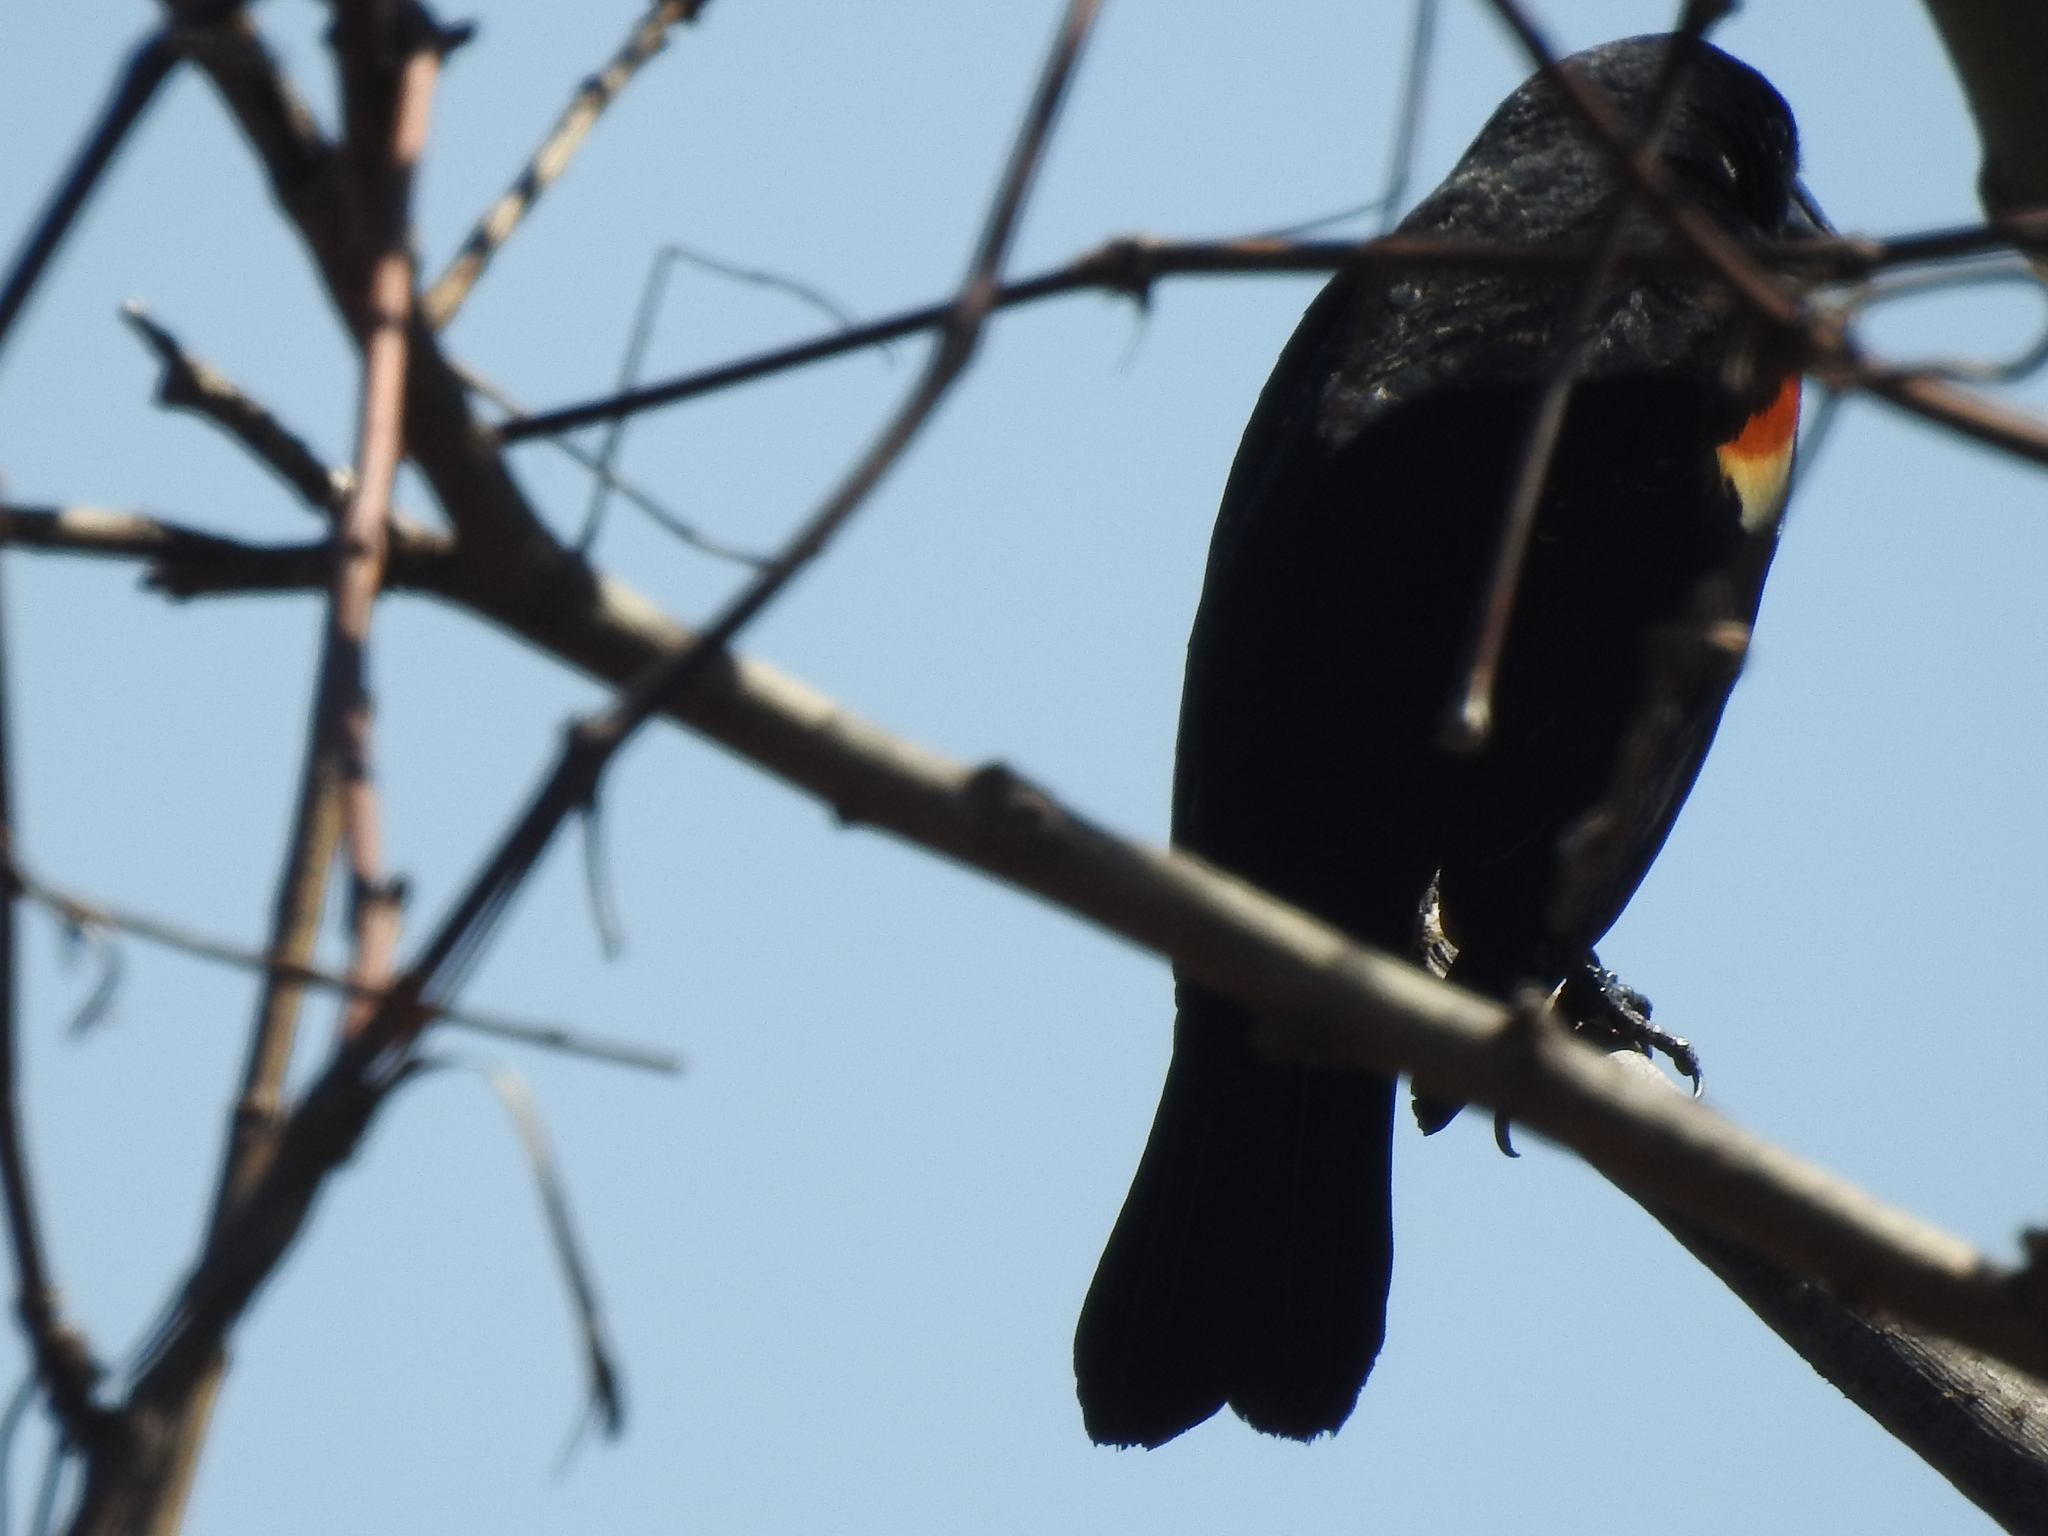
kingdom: Animalia
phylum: Chordata
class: Aves
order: Passeriformes
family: Icteridae
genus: Agelaius
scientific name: Agelaius phoeniceus
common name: Red-winged blackbird
